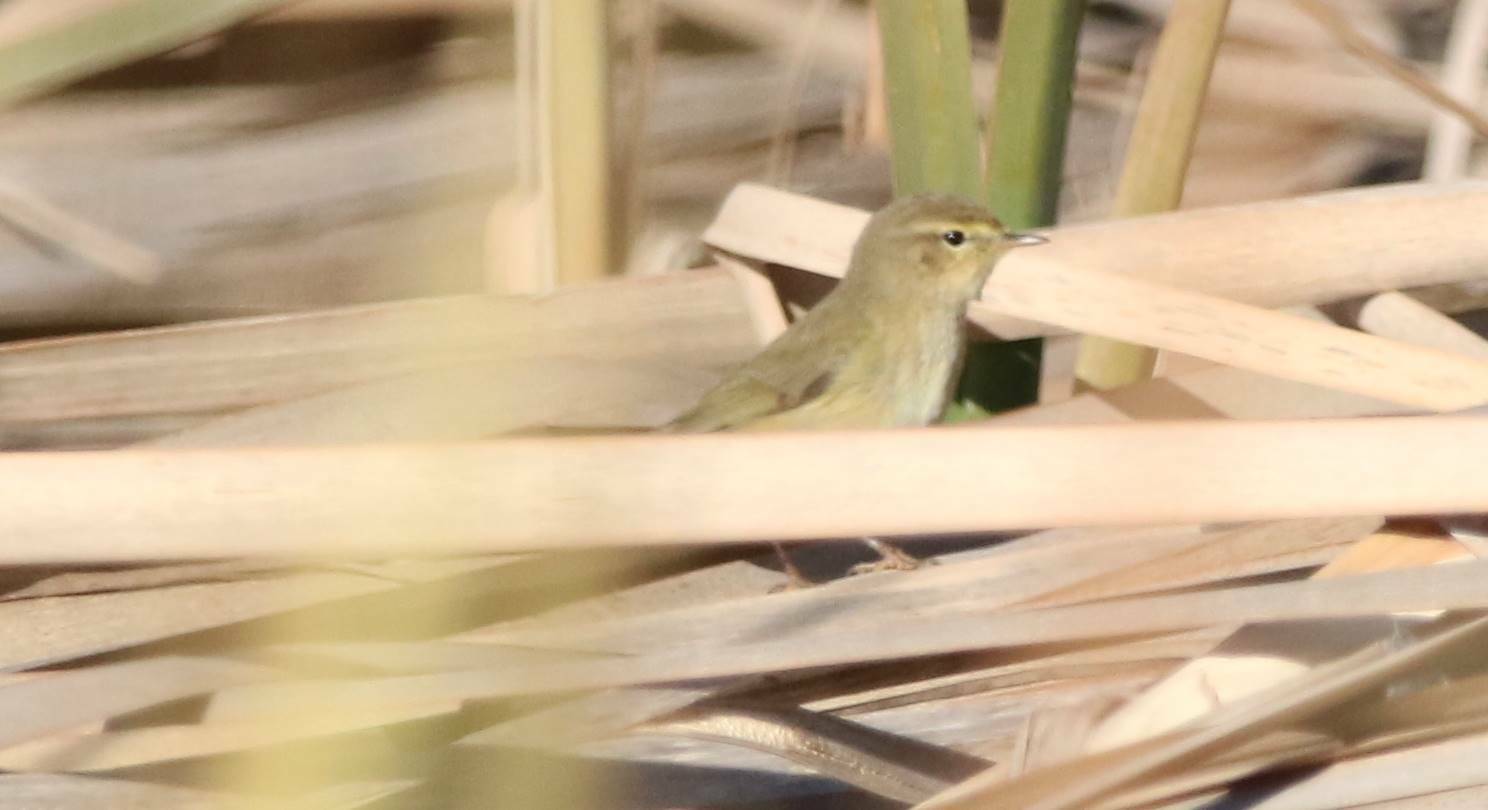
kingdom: Animalia
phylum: Chordata
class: Aves
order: Passeriformes
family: Phylloscopidae
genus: Phylloscopus
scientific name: Phylloscopus collybita
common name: Common chiffchaff
